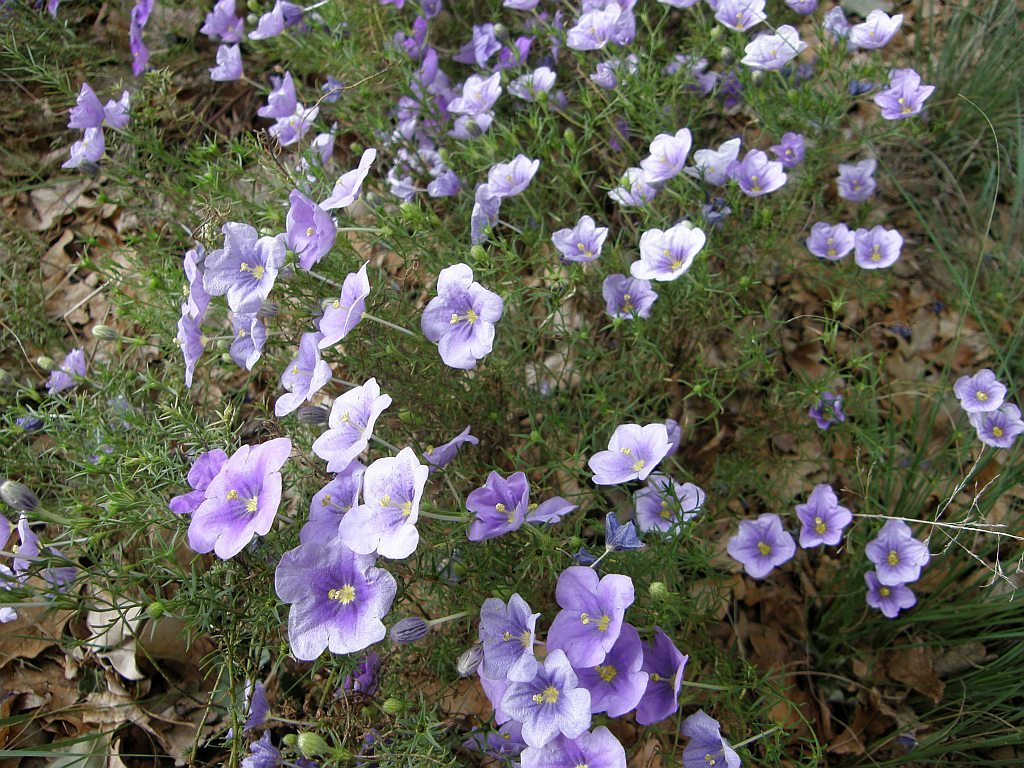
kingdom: Plantae
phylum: Tracheophyta
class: Magnoliopsida
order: Solanales
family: Solanaceae
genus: Nierembergia
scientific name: Nierembergia linariifolia
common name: Dwarf cupflower
